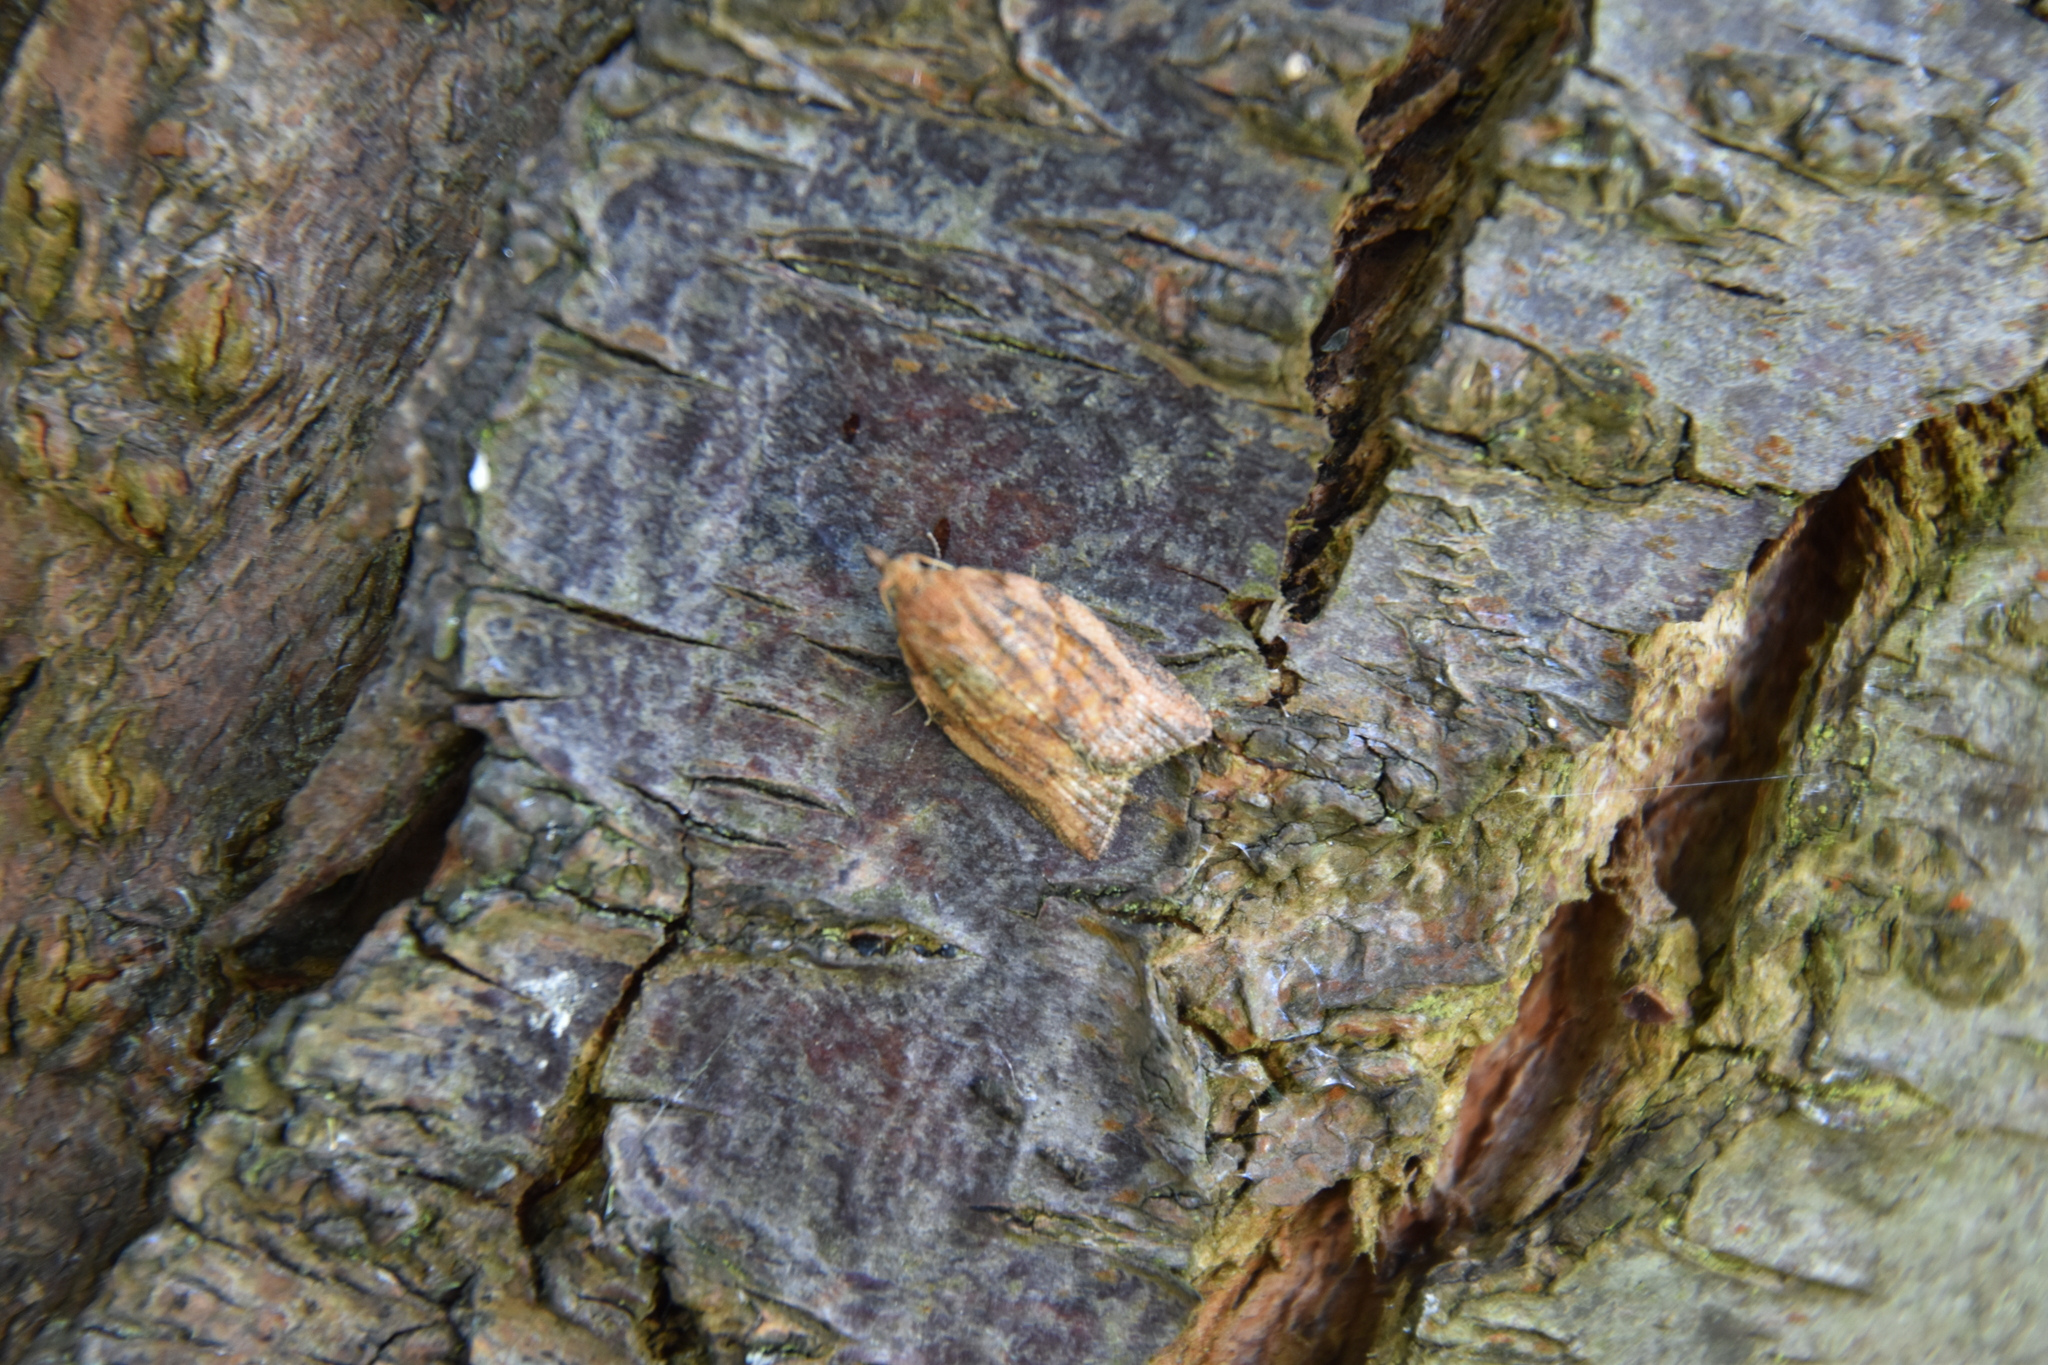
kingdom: Animalia
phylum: Arthropoda
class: Insecta
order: Lepidoptera
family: Tortricidae
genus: Epiphyas
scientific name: Epiphyas postvittana
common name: Light brown apple moth
